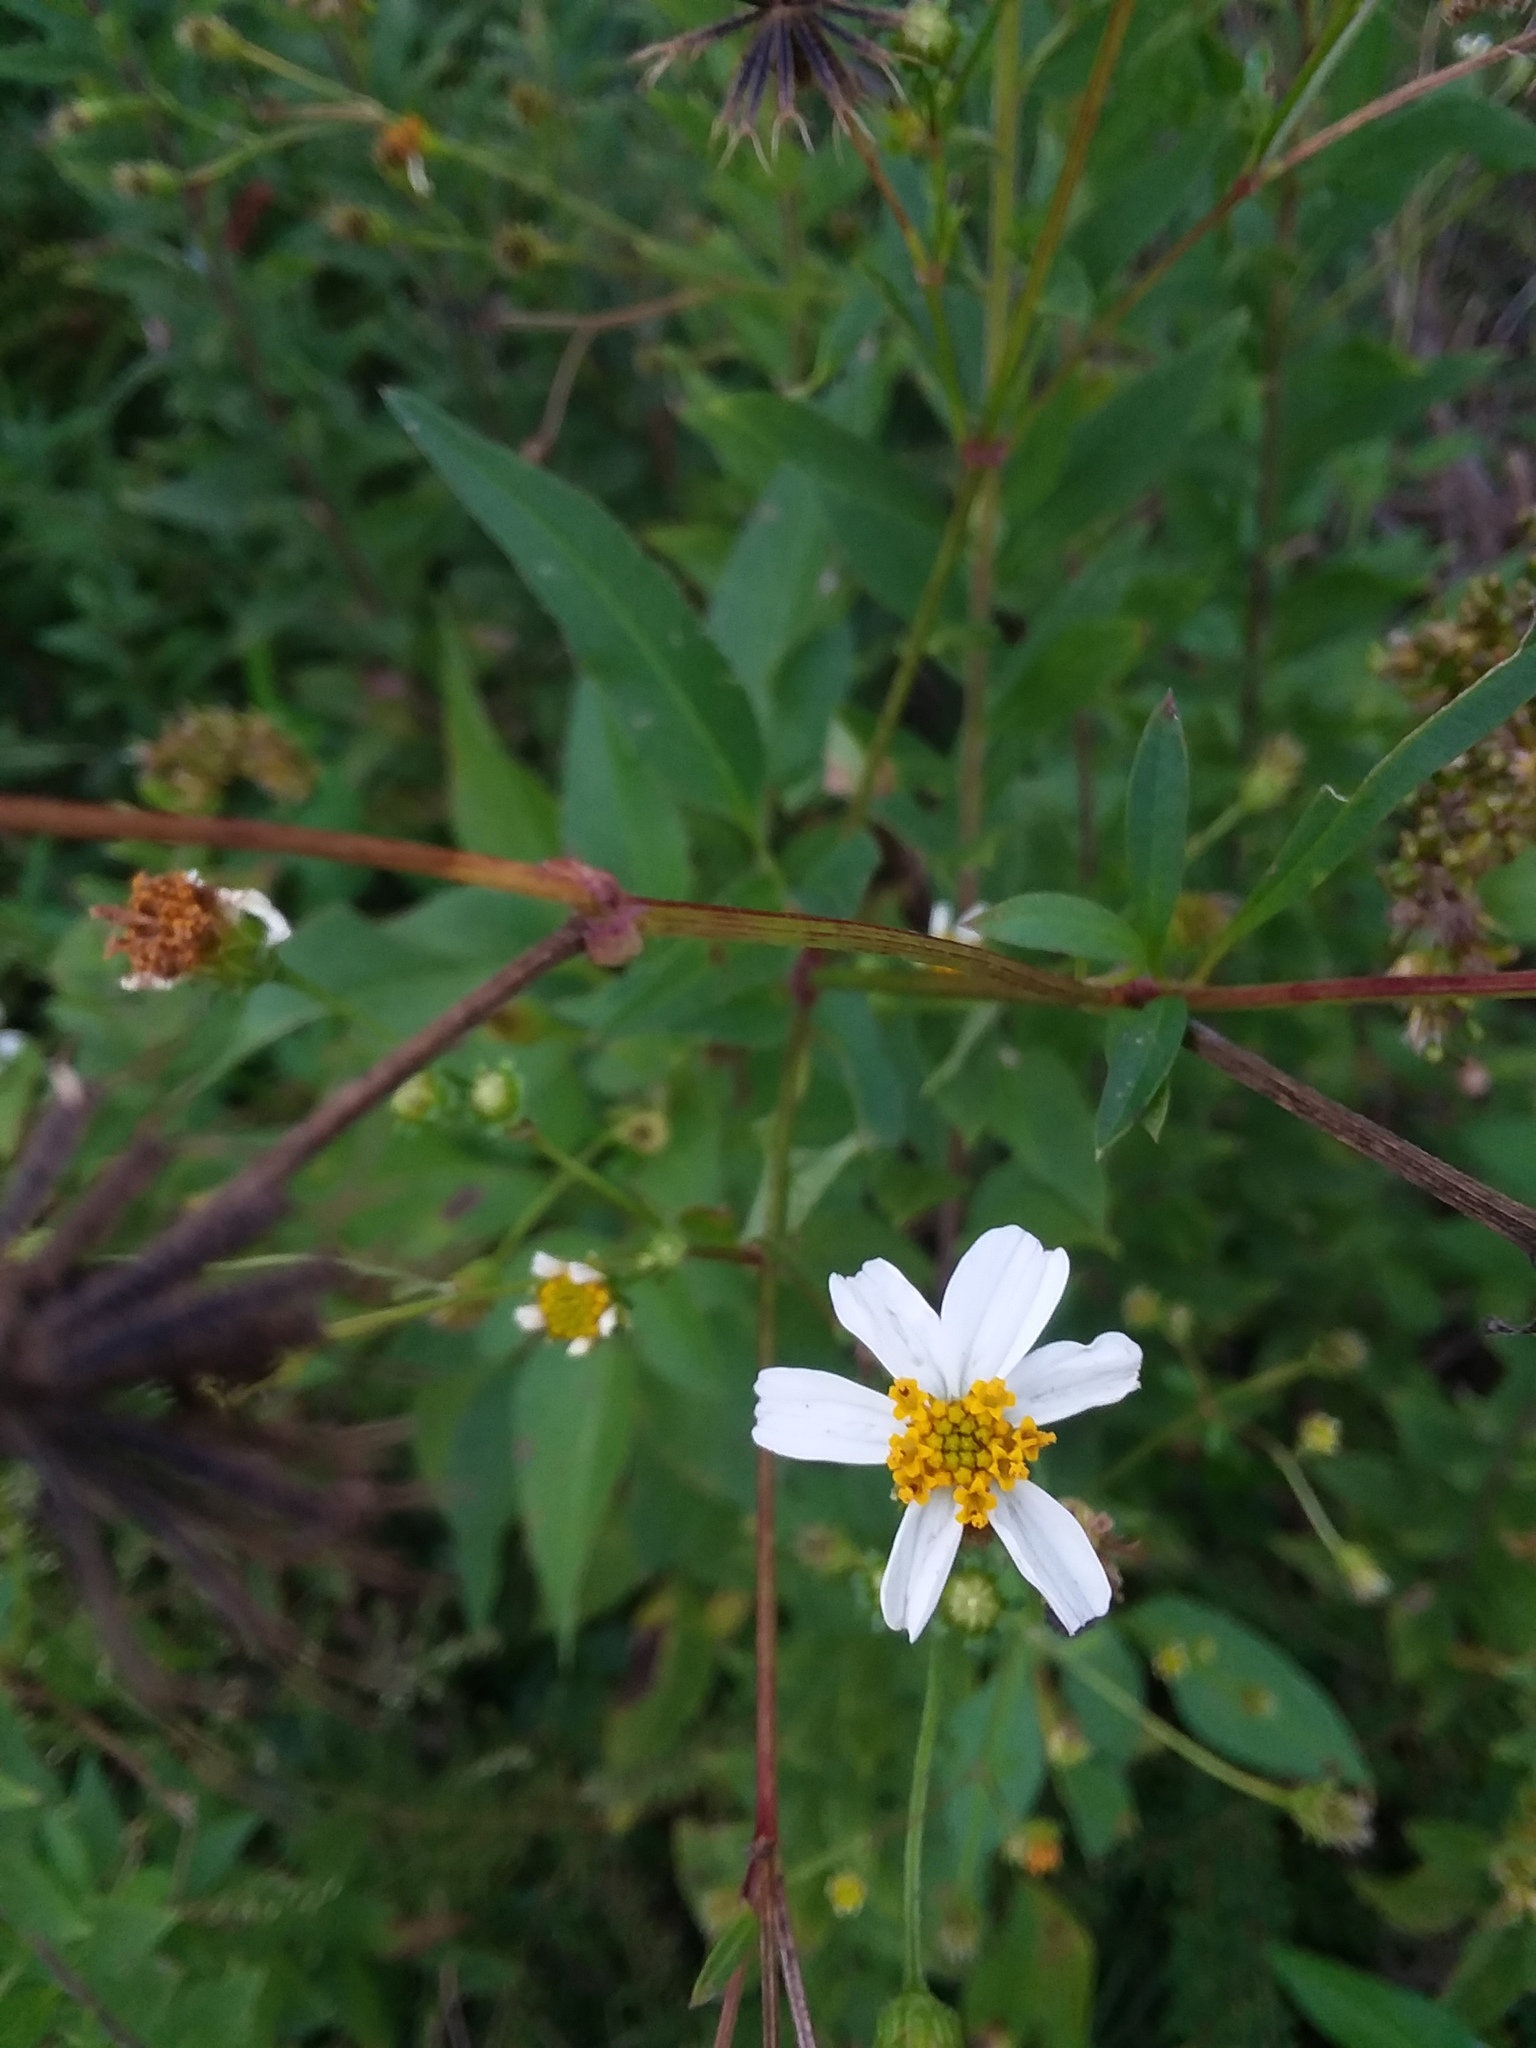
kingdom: Plantae
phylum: Tracheophyta
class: Magnoliopsida
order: Asterales
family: Asteraceae
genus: Bidens
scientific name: Bidens alba
